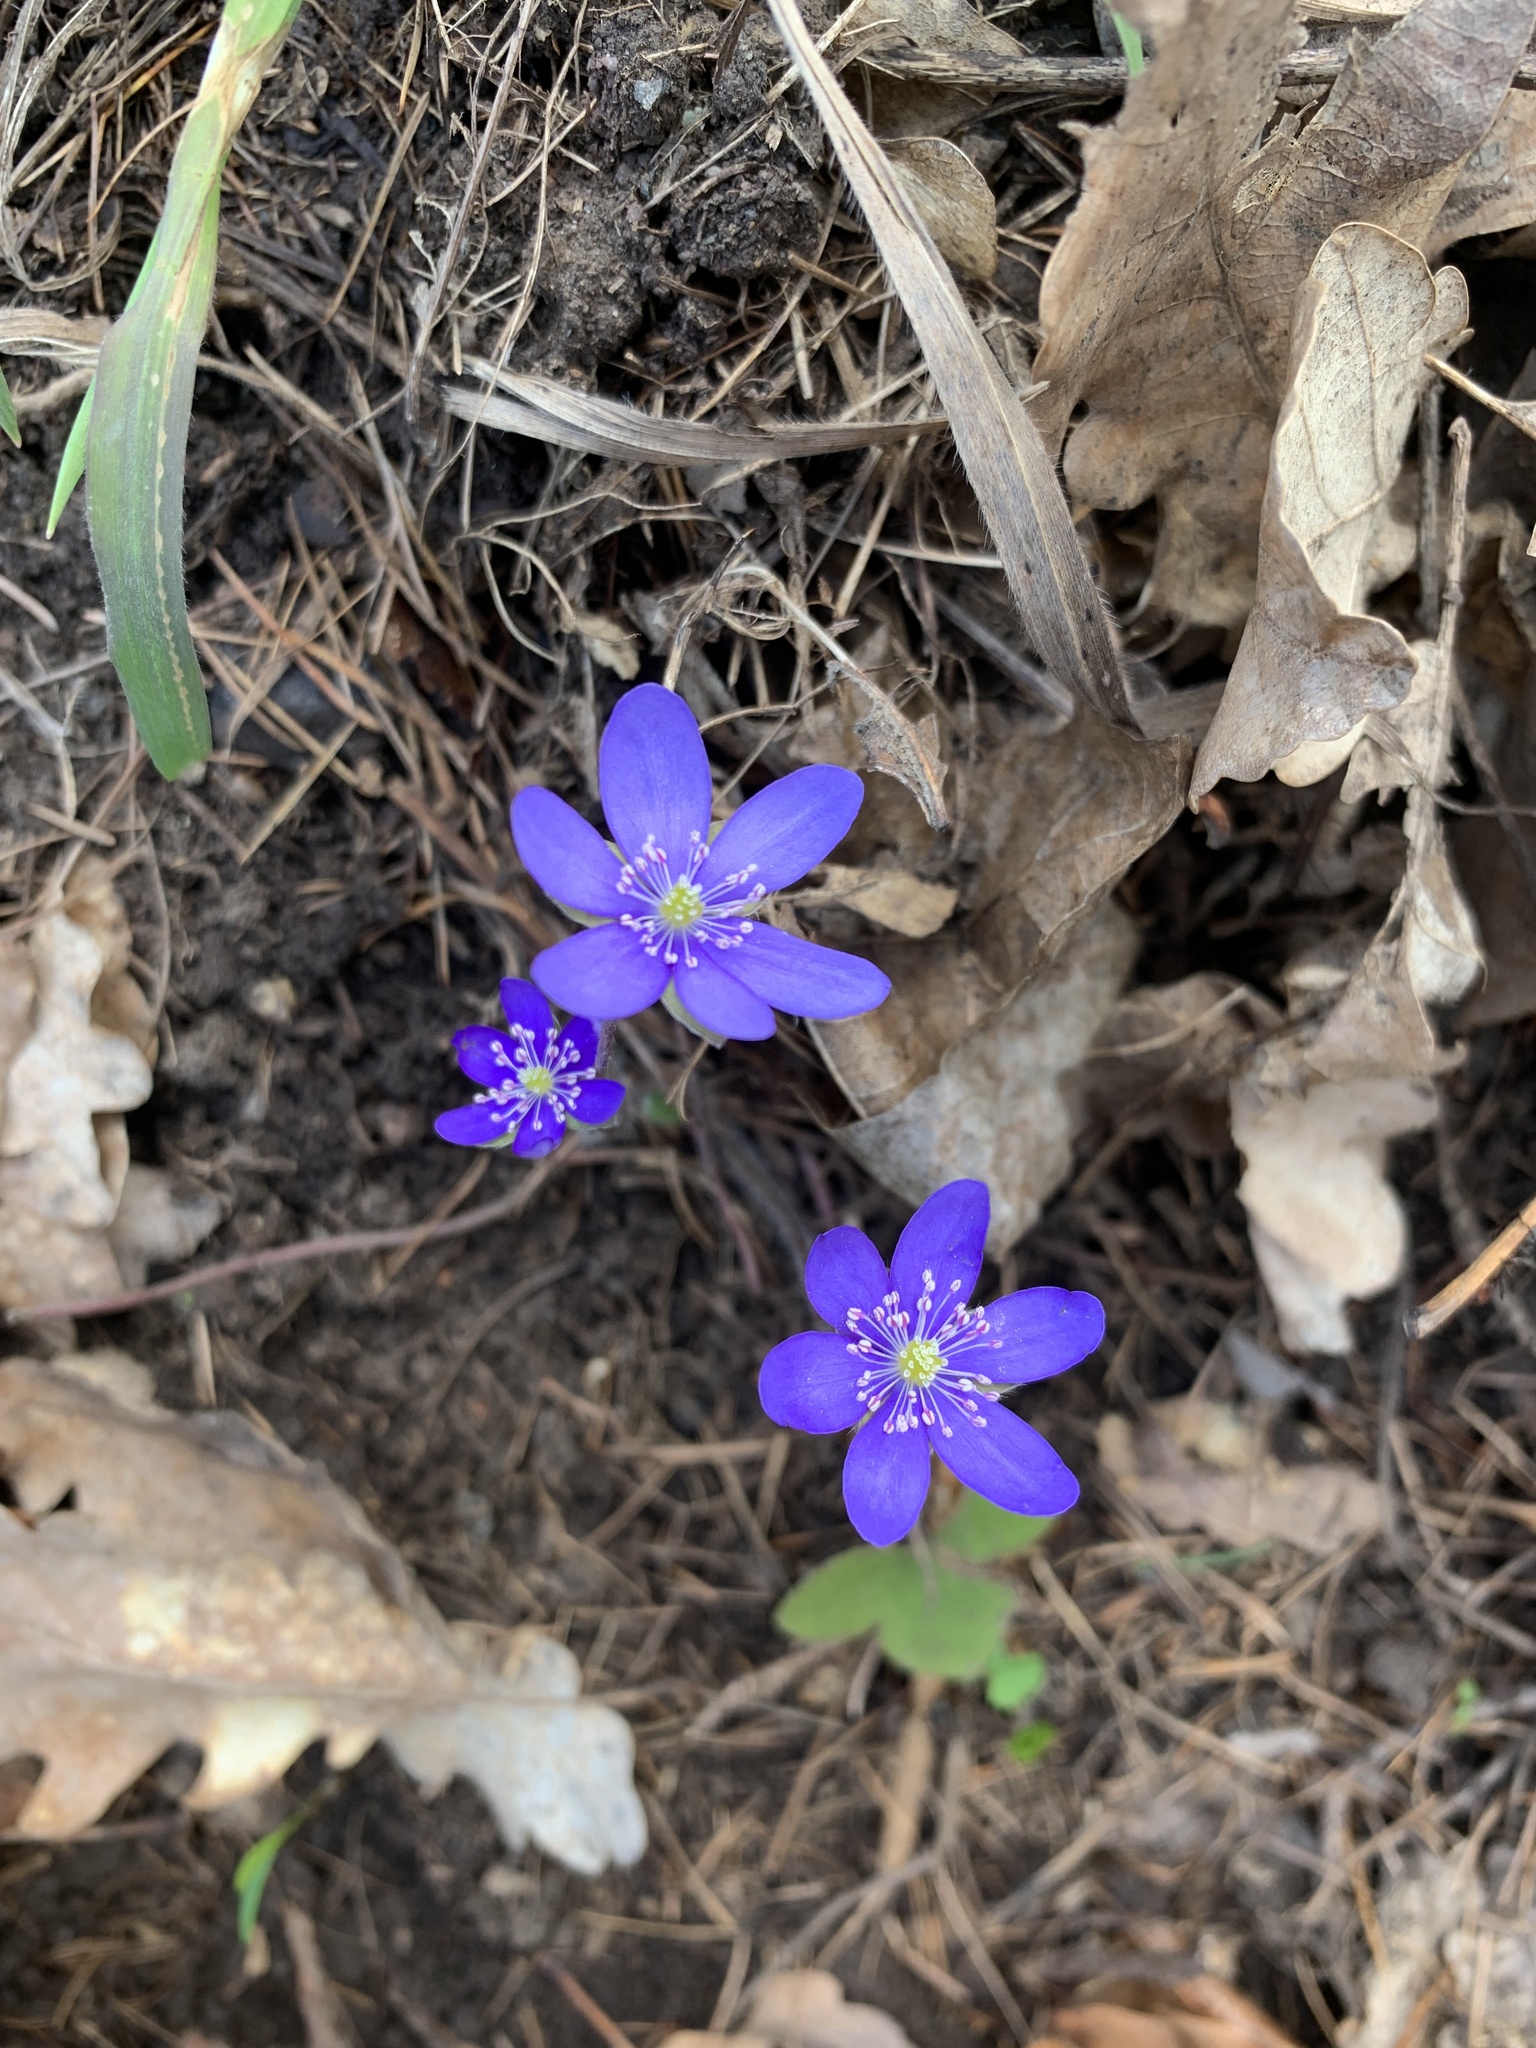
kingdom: Plantae
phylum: Tracheophyta
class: Magnoliopsida
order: Ranunculales
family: Ranunculaceae
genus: Hepatica
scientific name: Hepatica nobilis
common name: Liverleaf
